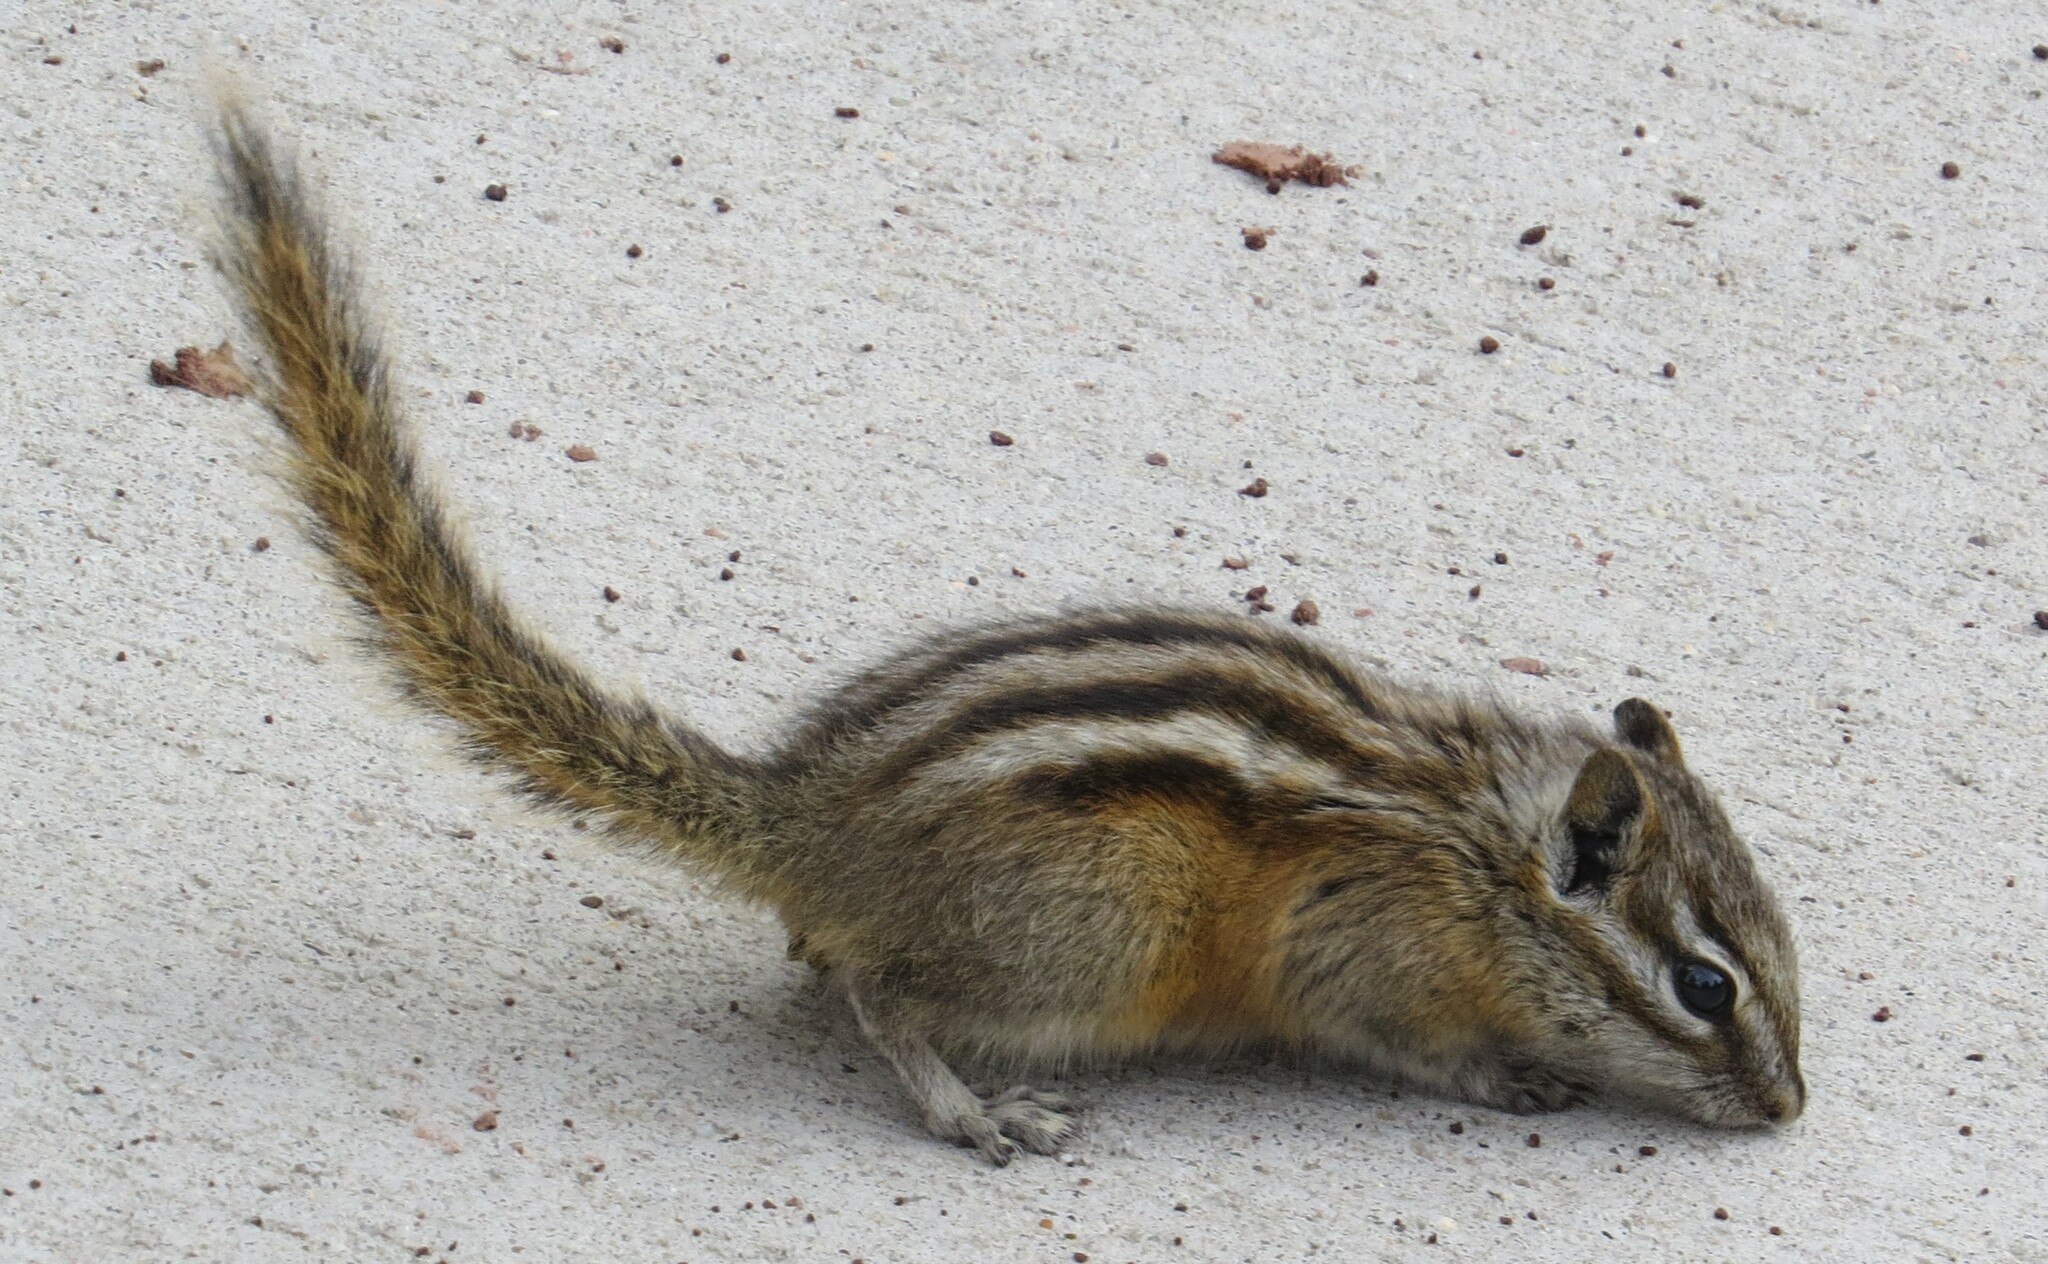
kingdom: Animalia
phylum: Chordata
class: Mammalia
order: Rodentia
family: Sciuridae
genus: Tamias
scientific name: Tamias minimus
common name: Least chipmunk
